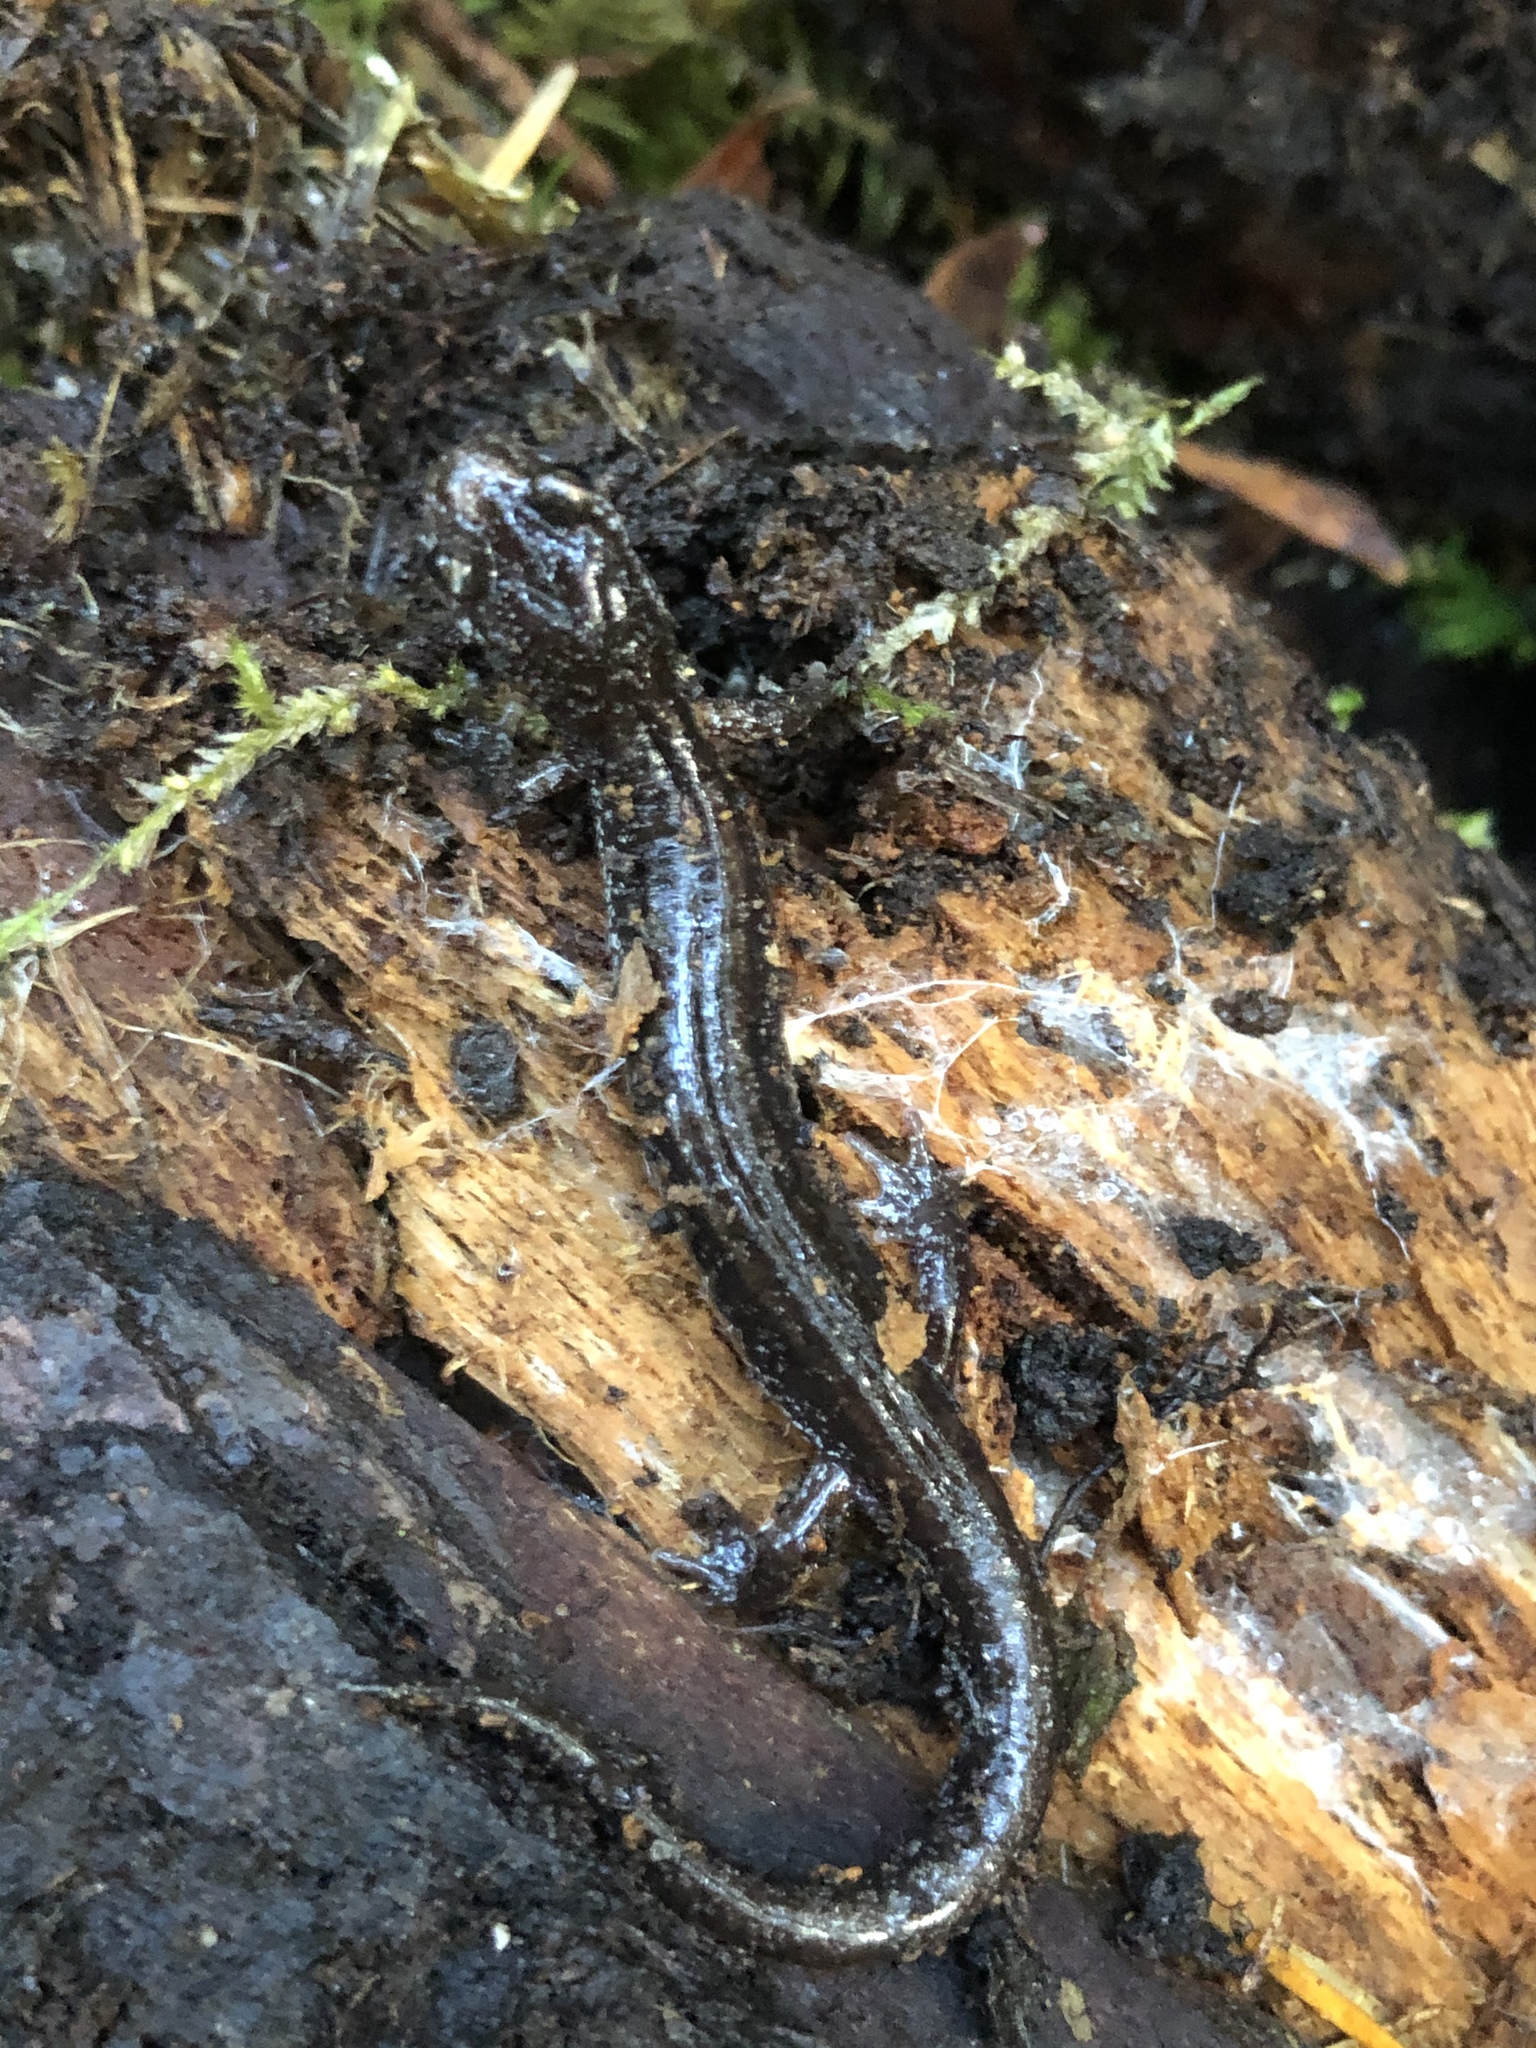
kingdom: Animalia
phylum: Chordata
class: Amphibia
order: Caudata
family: Plethodontidae
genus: Plethodon
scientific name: Plethodon vehiculum
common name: Western red-backed salamander
